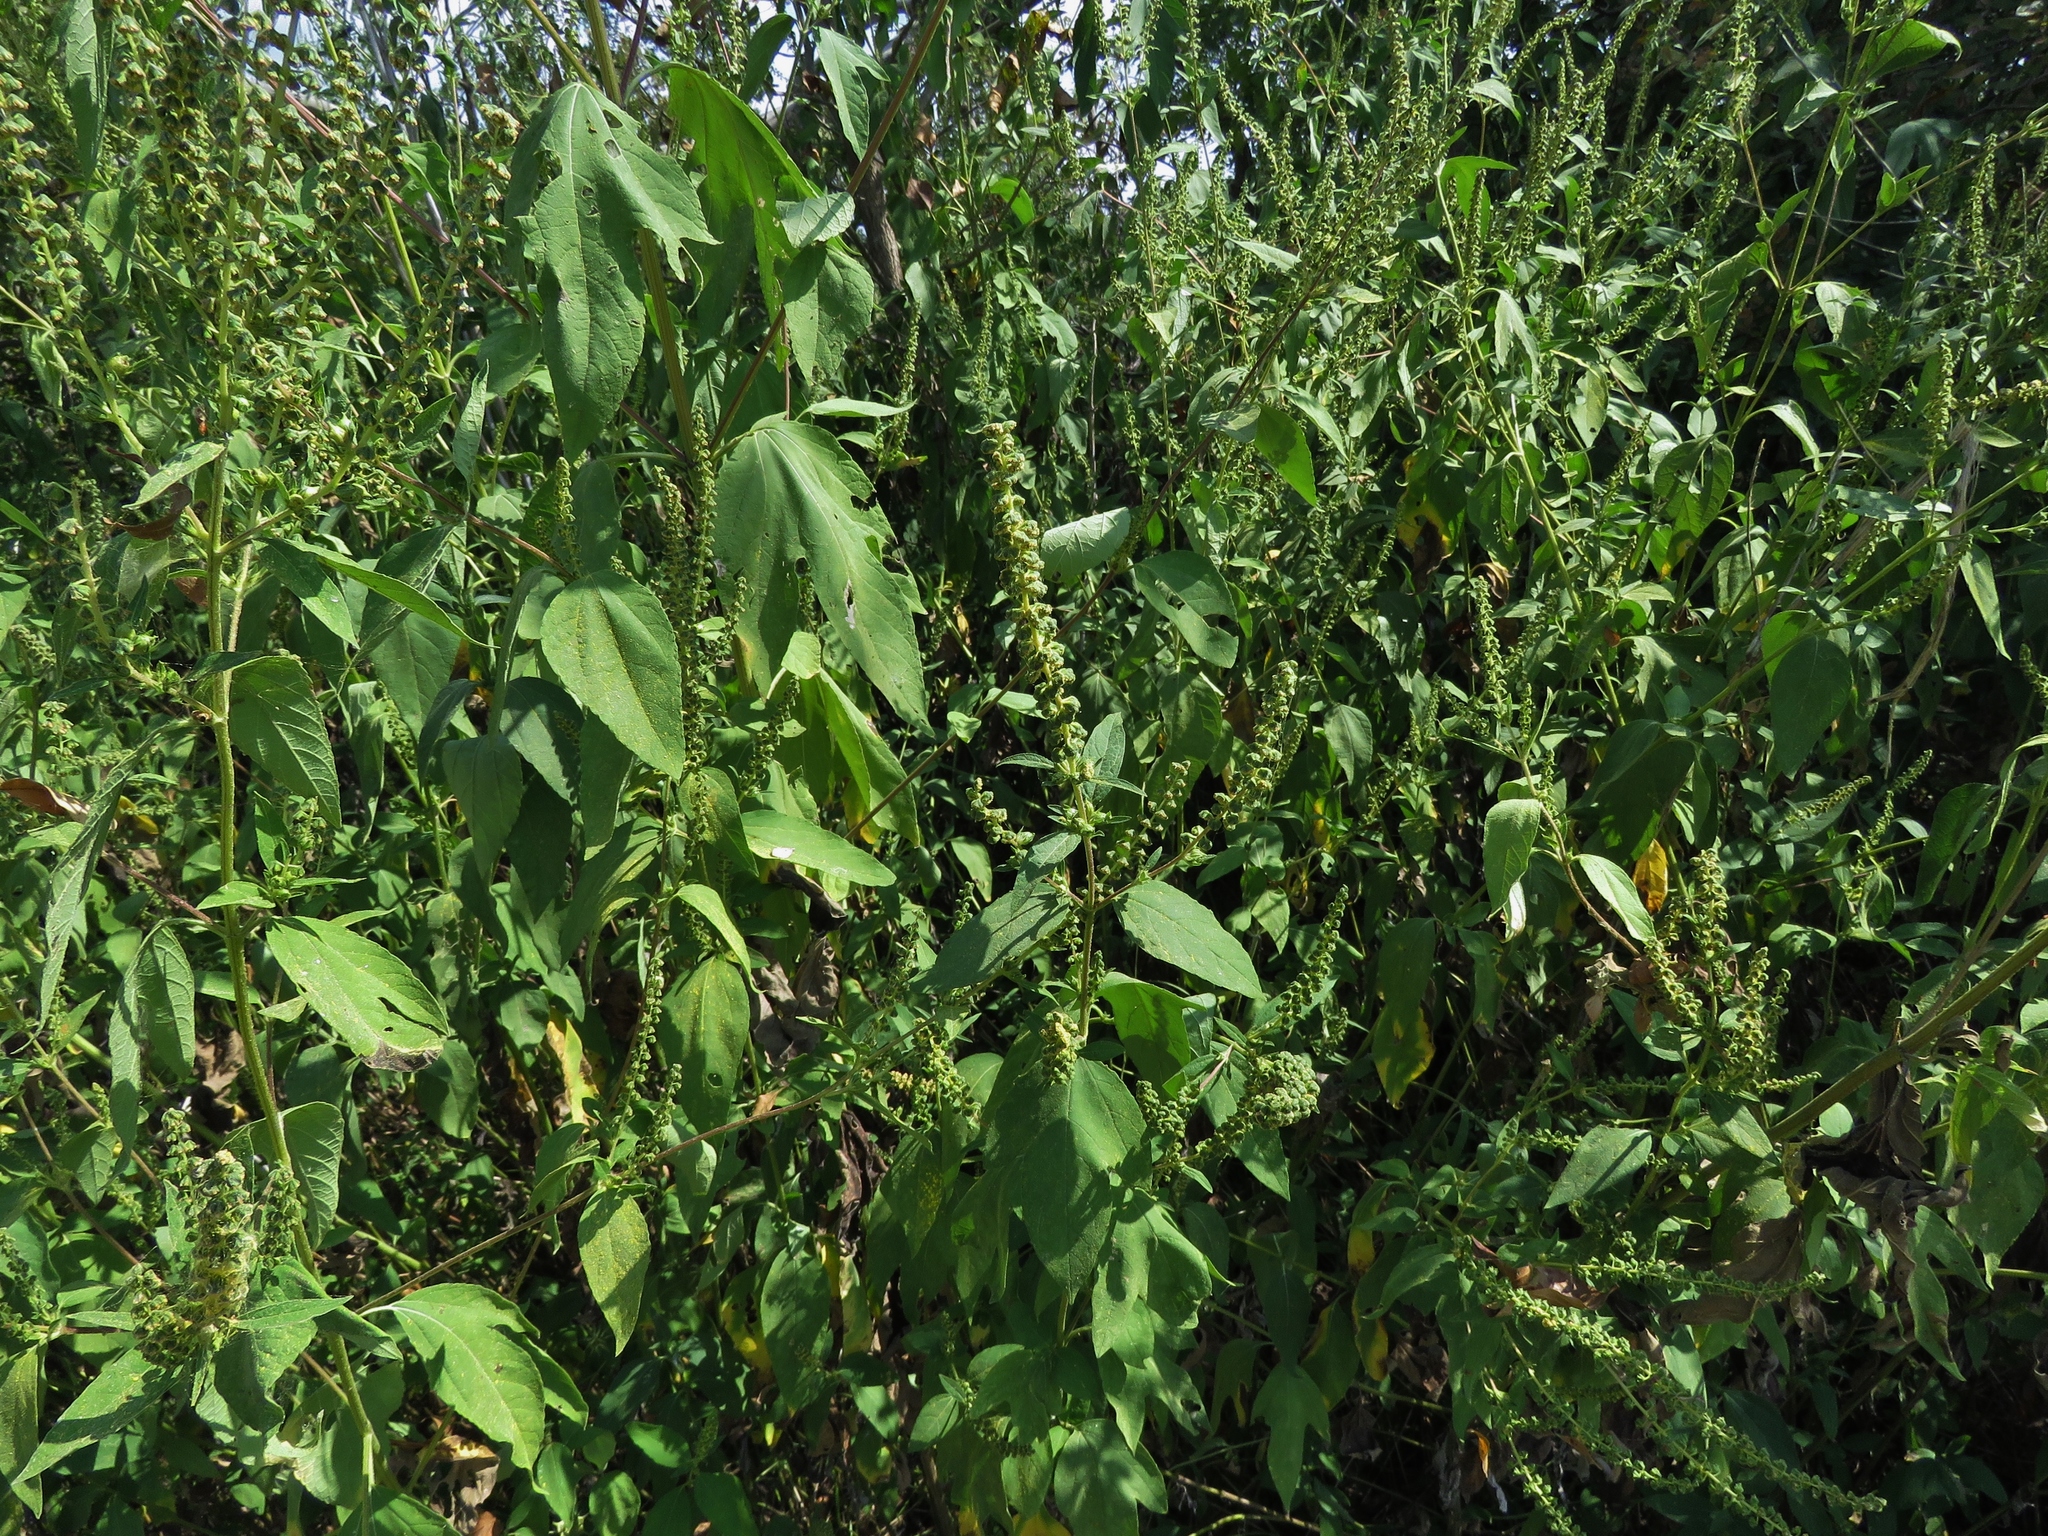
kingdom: Plantae
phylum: Tracheophyta
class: Magnoliopsida
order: Asterales
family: Asteraceae
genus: Ambrosia
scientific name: Ambrosia trifida
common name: Giant ragweed
